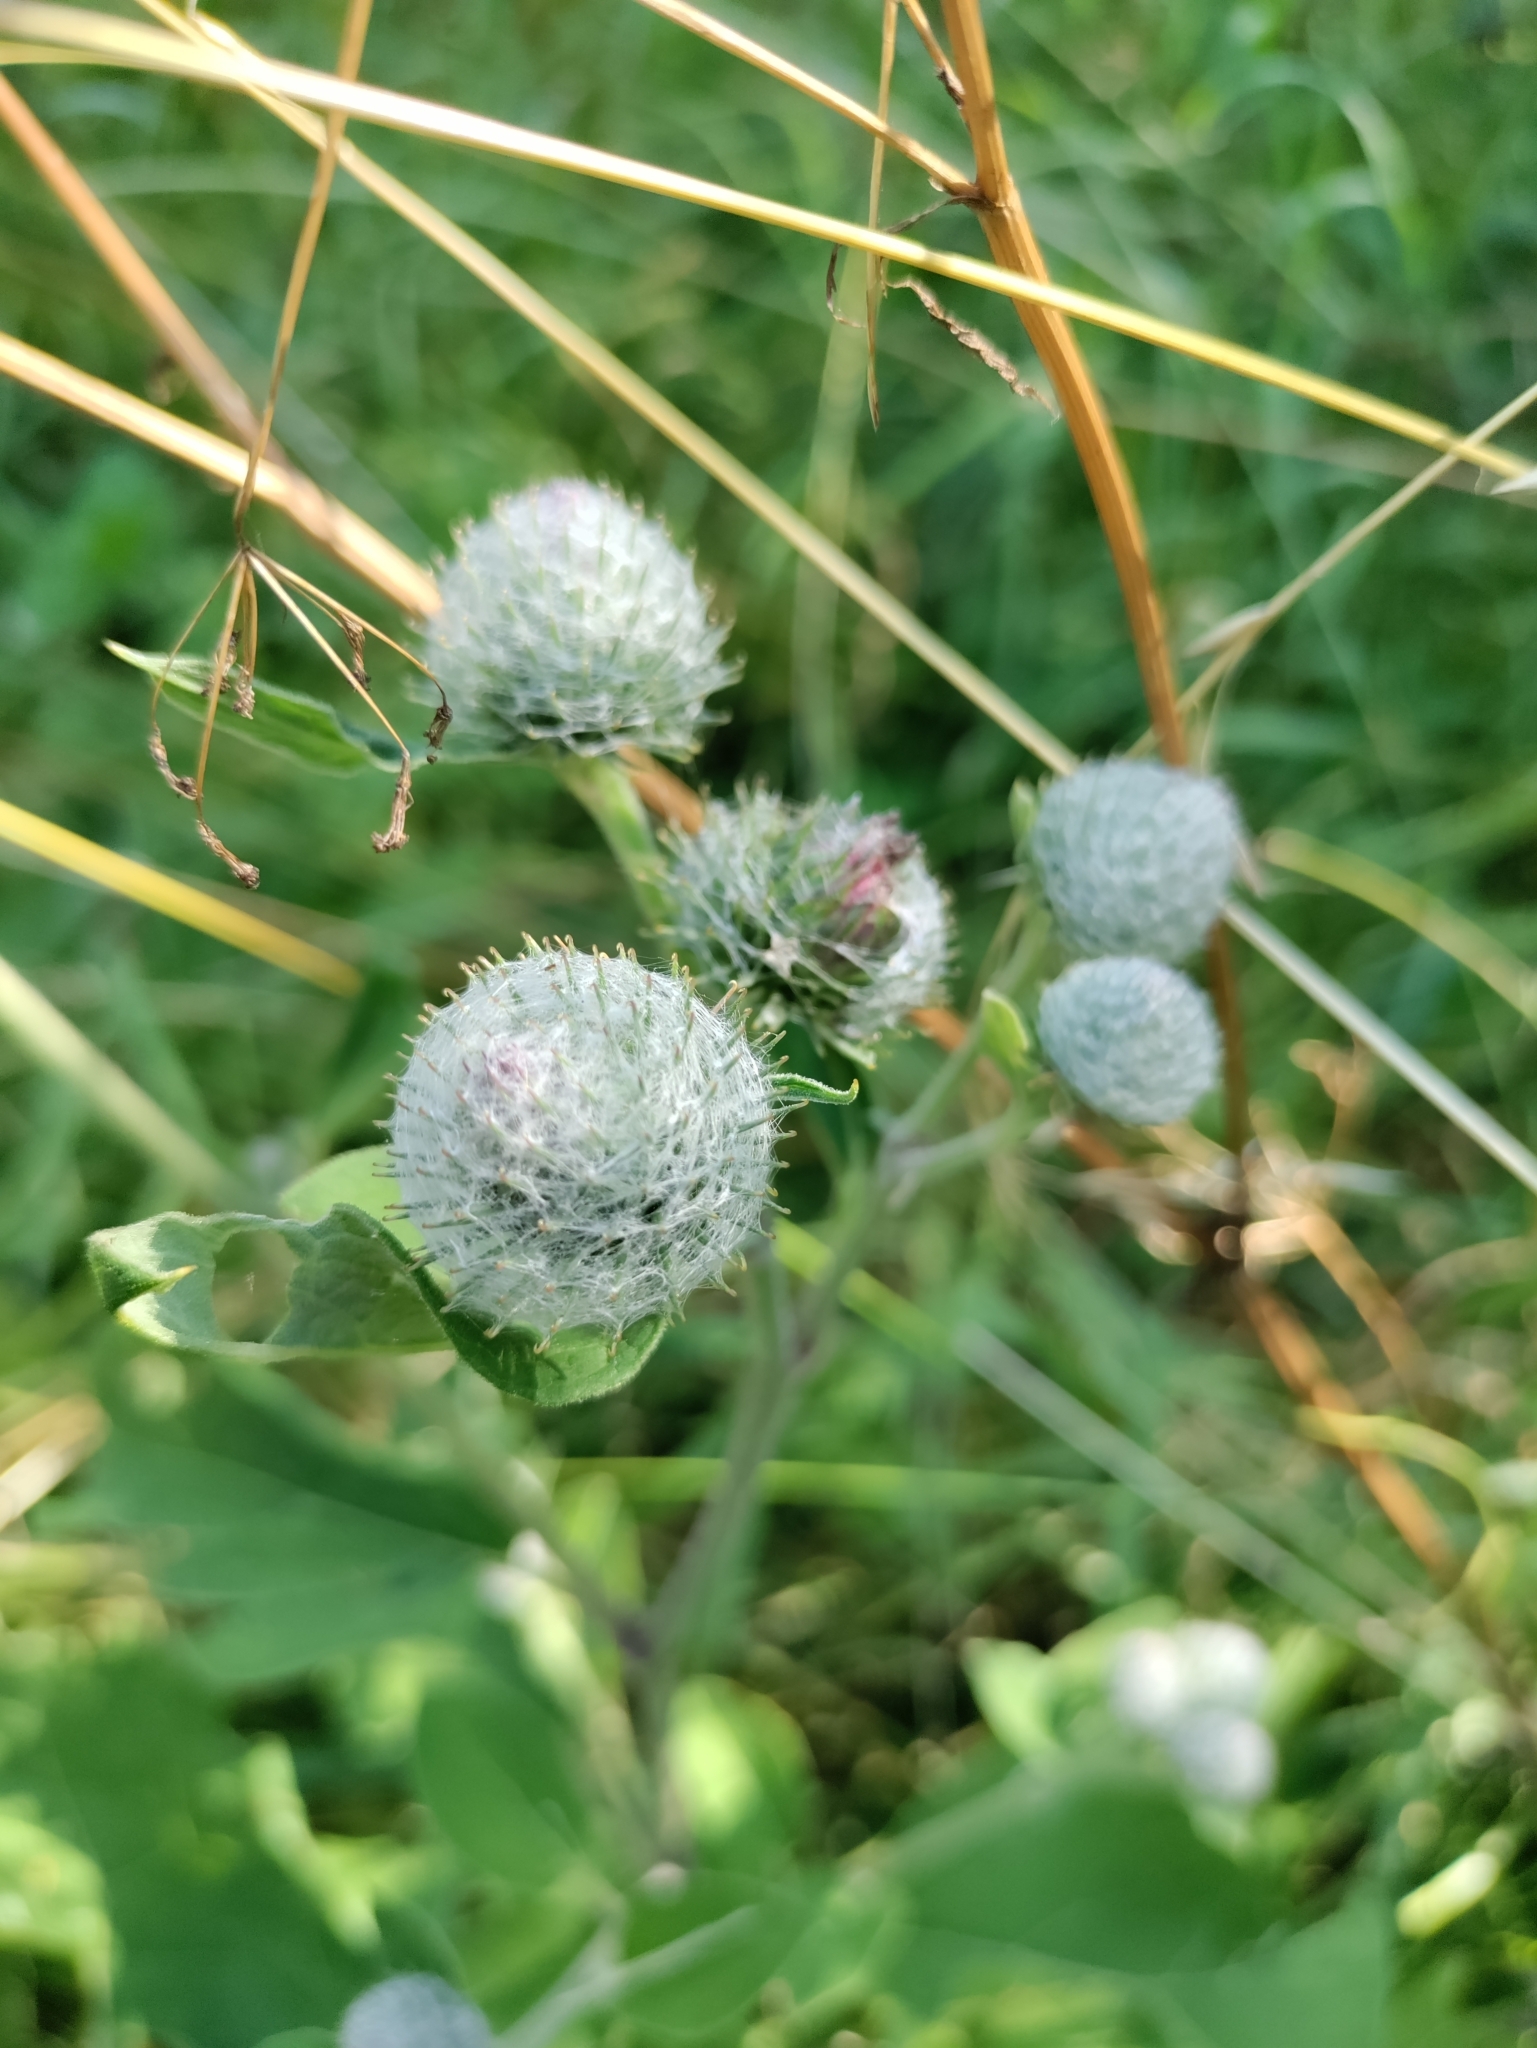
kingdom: Plantae
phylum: Tracheophyta
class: Magnoliopsida
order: Asterales
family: Asteraceae
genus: Arctium
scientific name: Arctium tomentosum
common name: Woolly burdock
